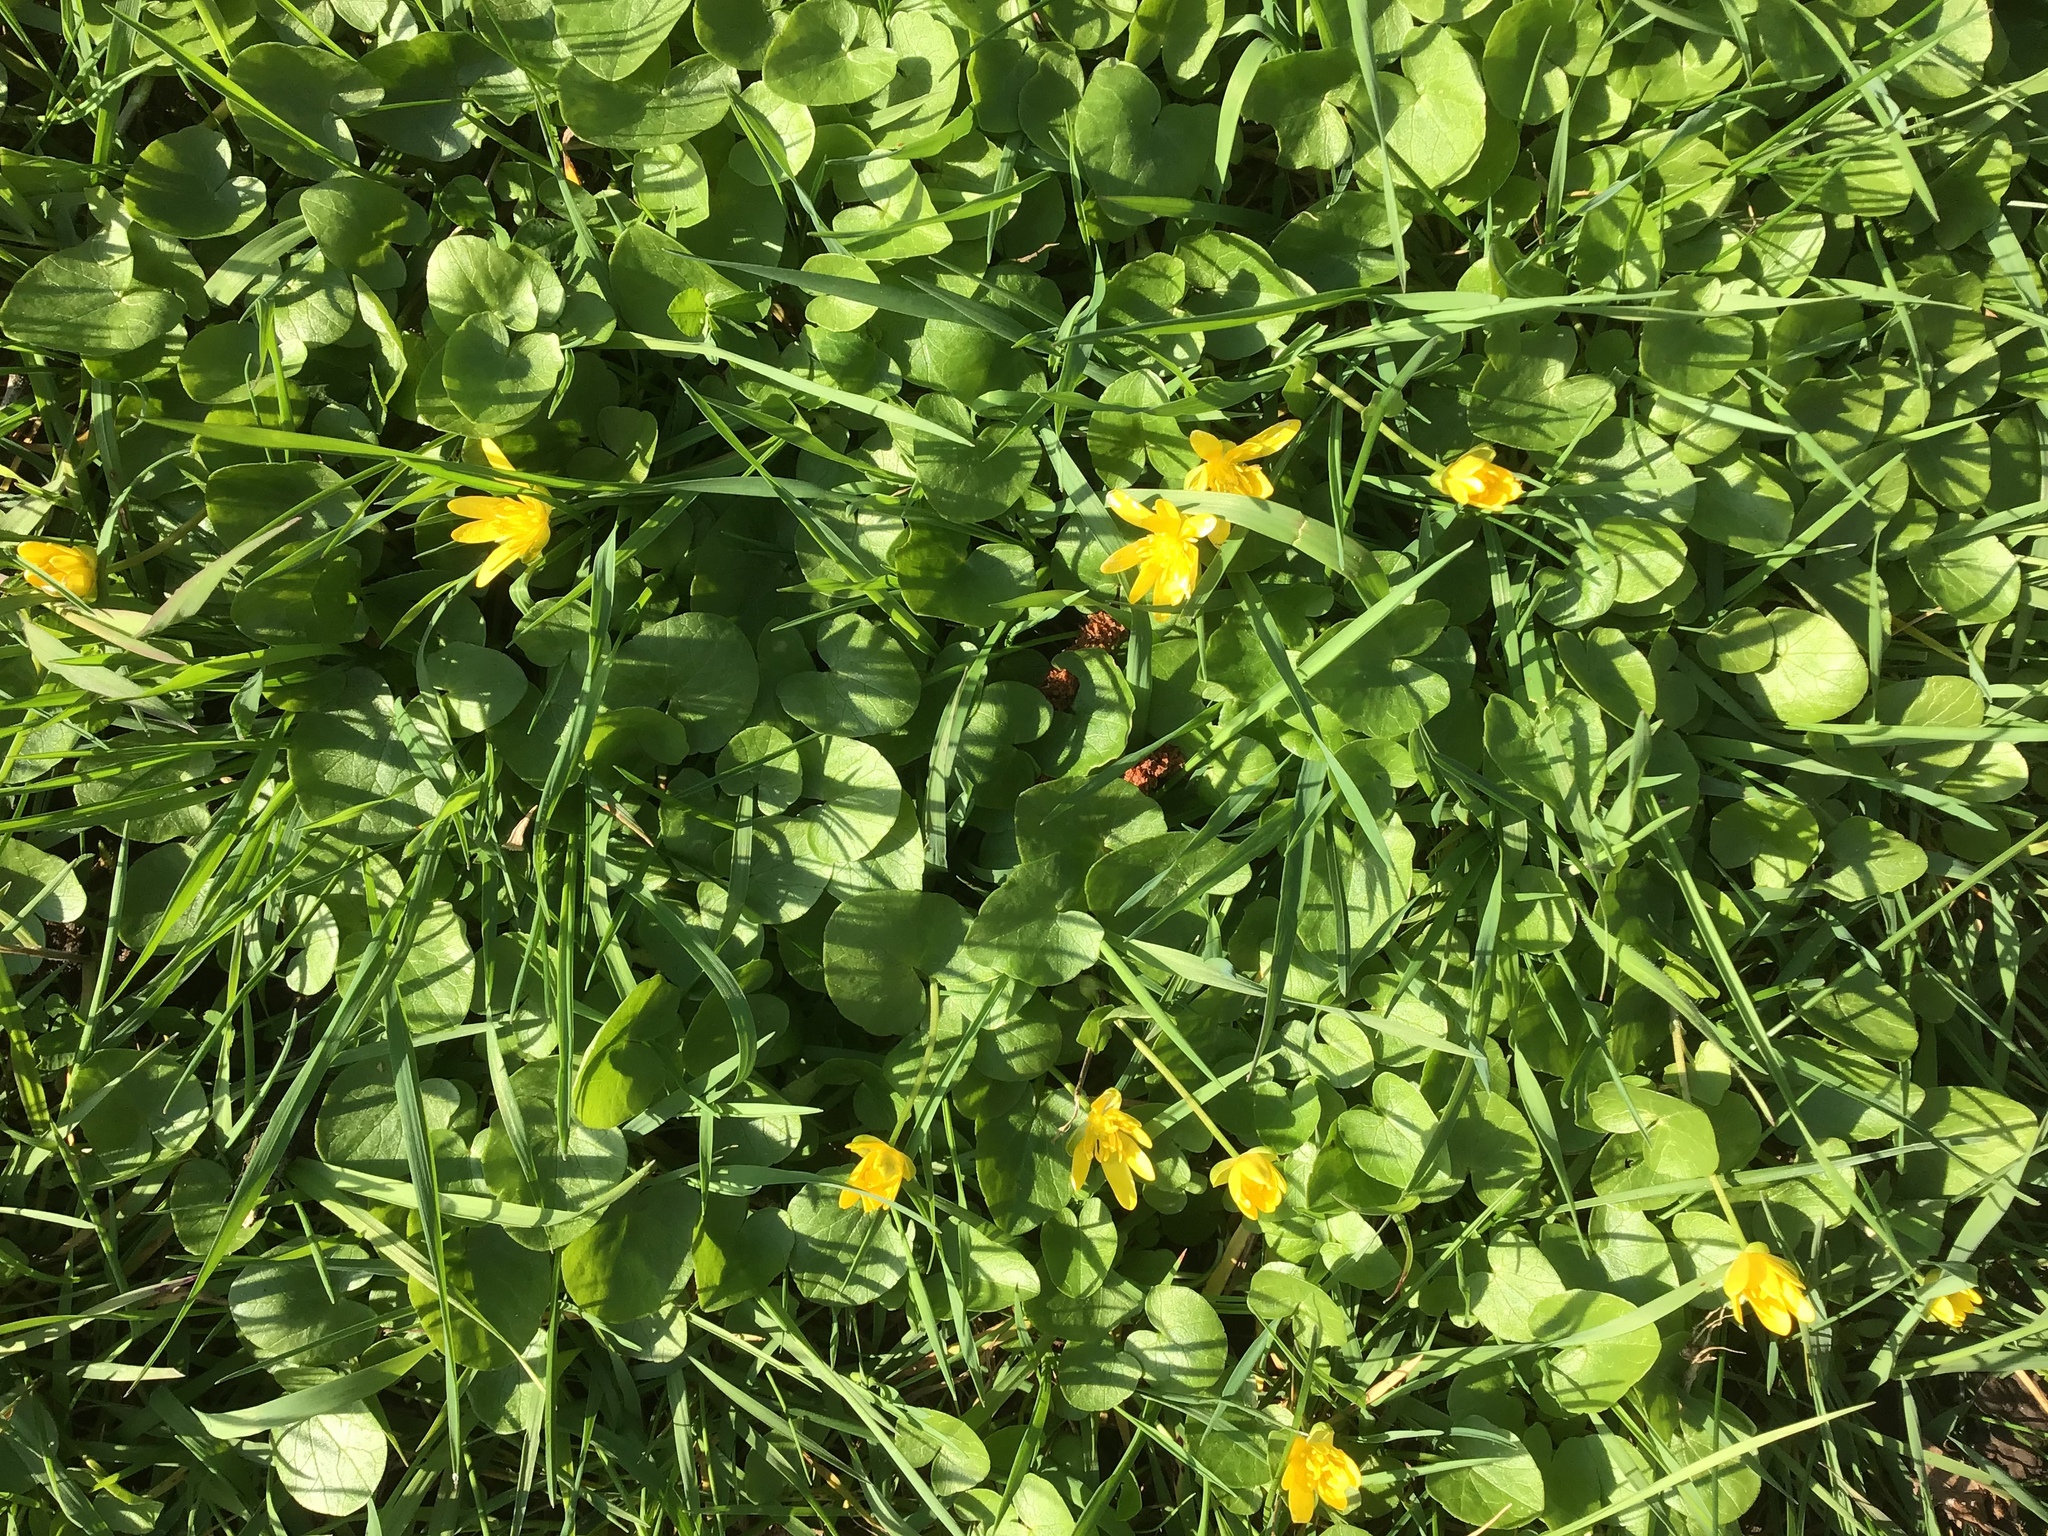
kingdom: Plantae
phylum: Tracheophyta
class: Magnoliopsida
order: Ranunculales
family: Ranunculaceae
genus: Ficaria
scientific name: Ficaria verna
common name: Lesser celandine
